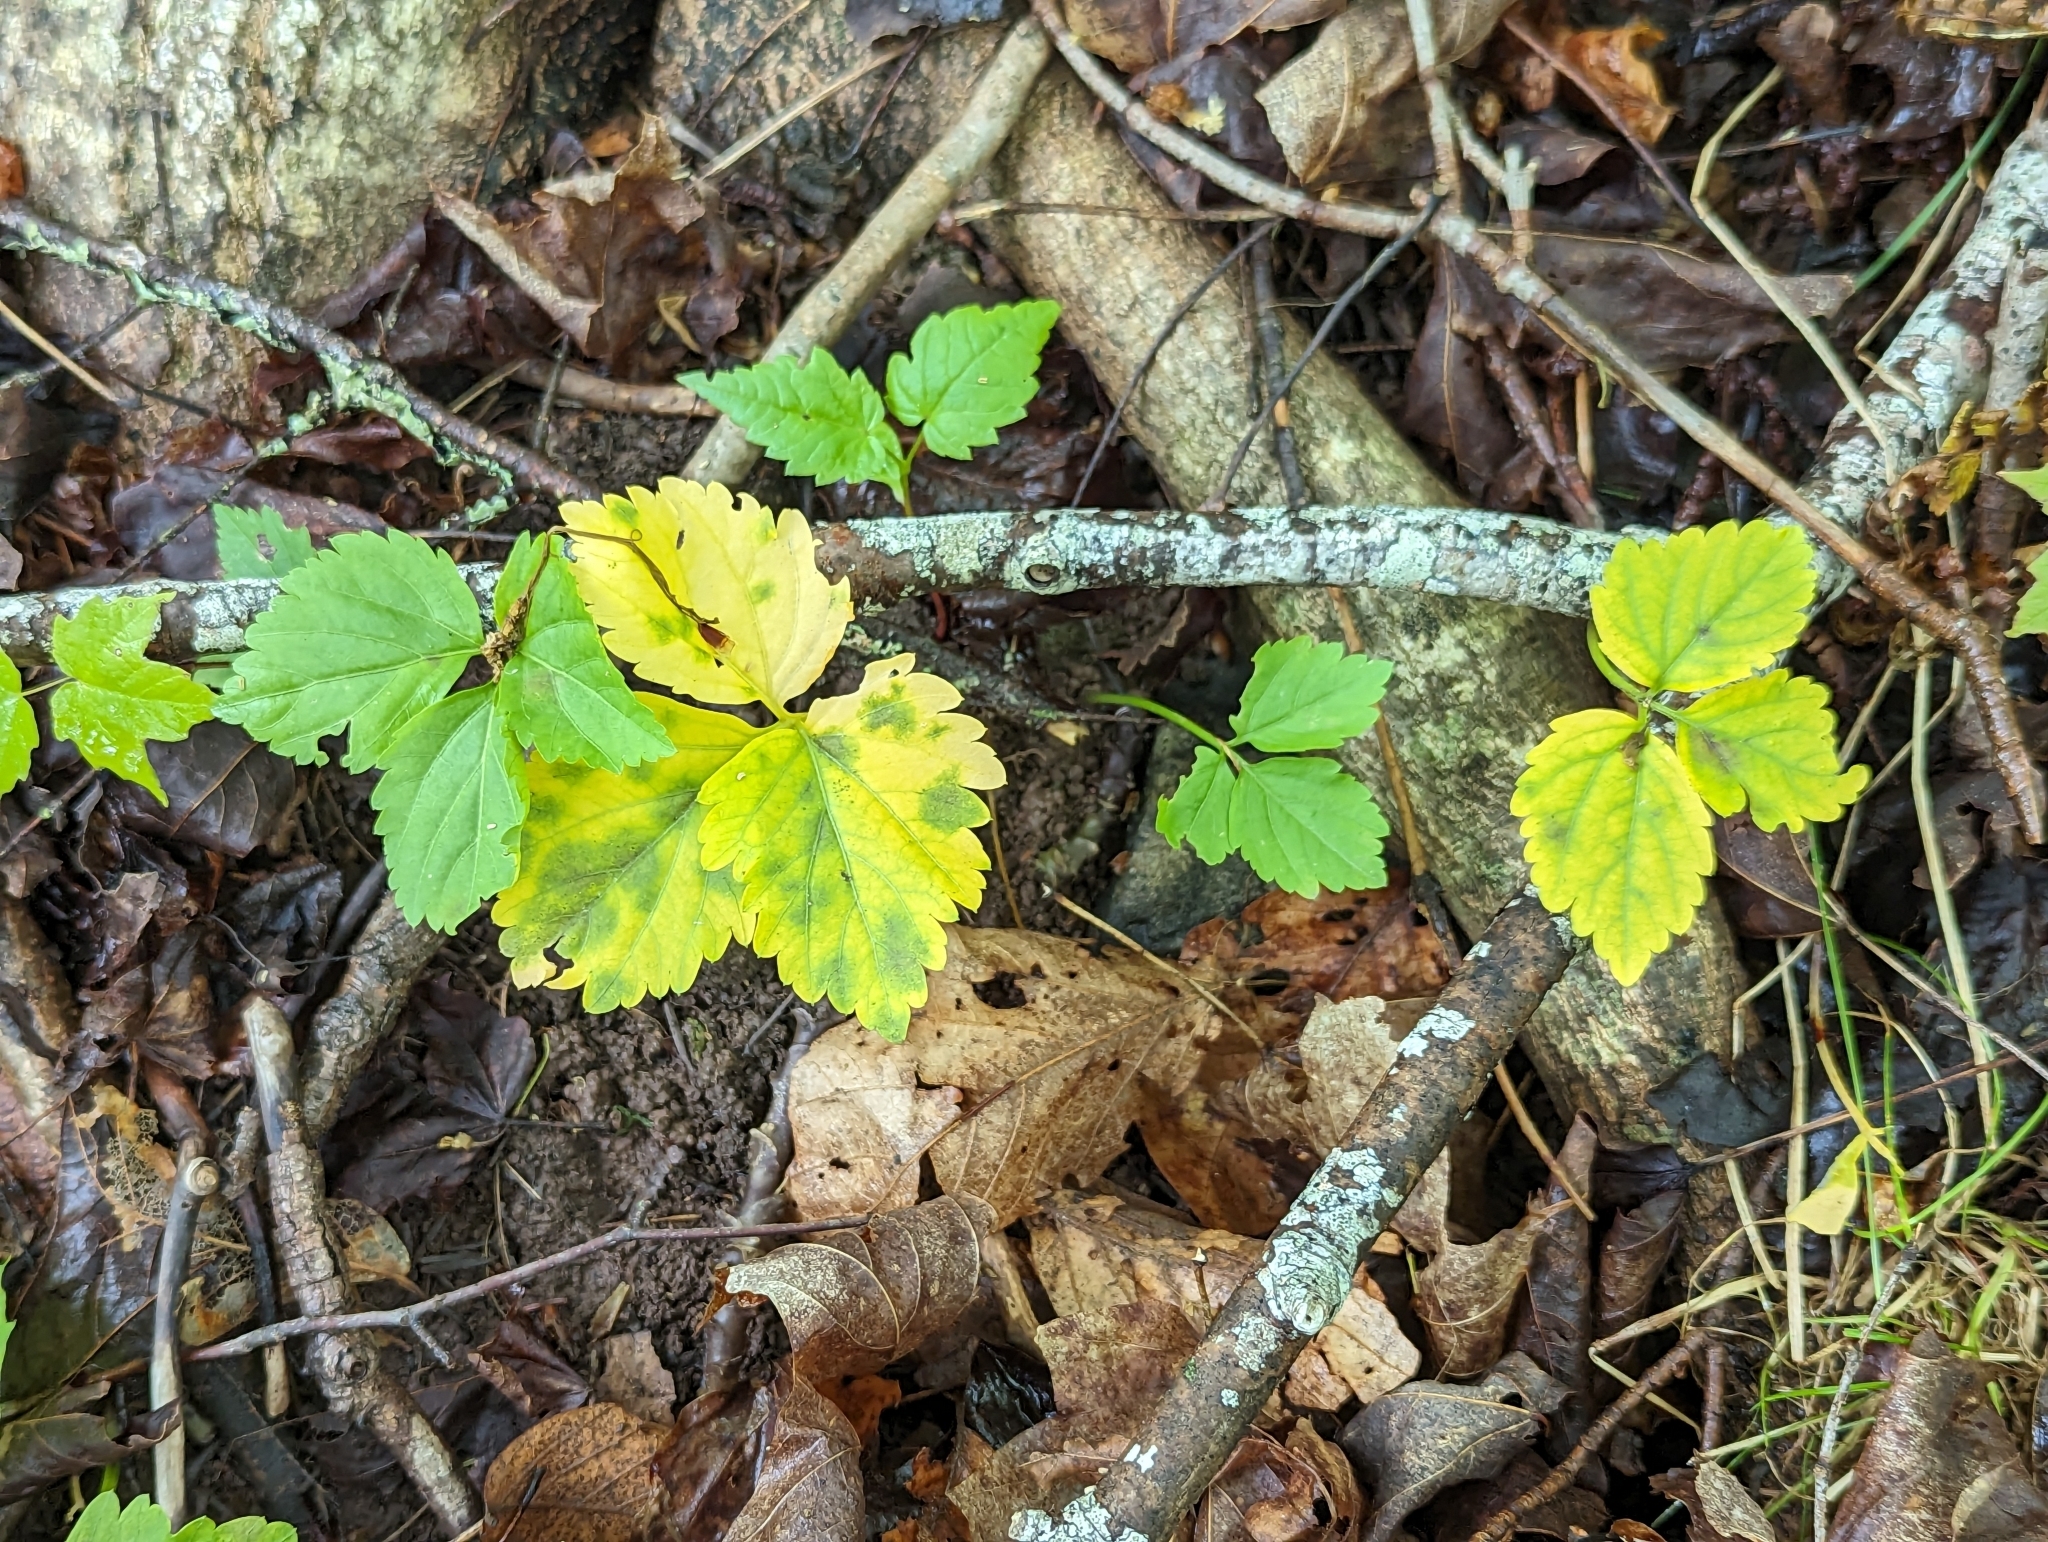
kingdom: Plantae
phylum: Tracheophyta
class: Magnoliopsida
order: Brassicales
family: Brassicaceae
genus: Cardamine
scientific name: Cardamine diphylla
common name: Broad-leaved toothwort
